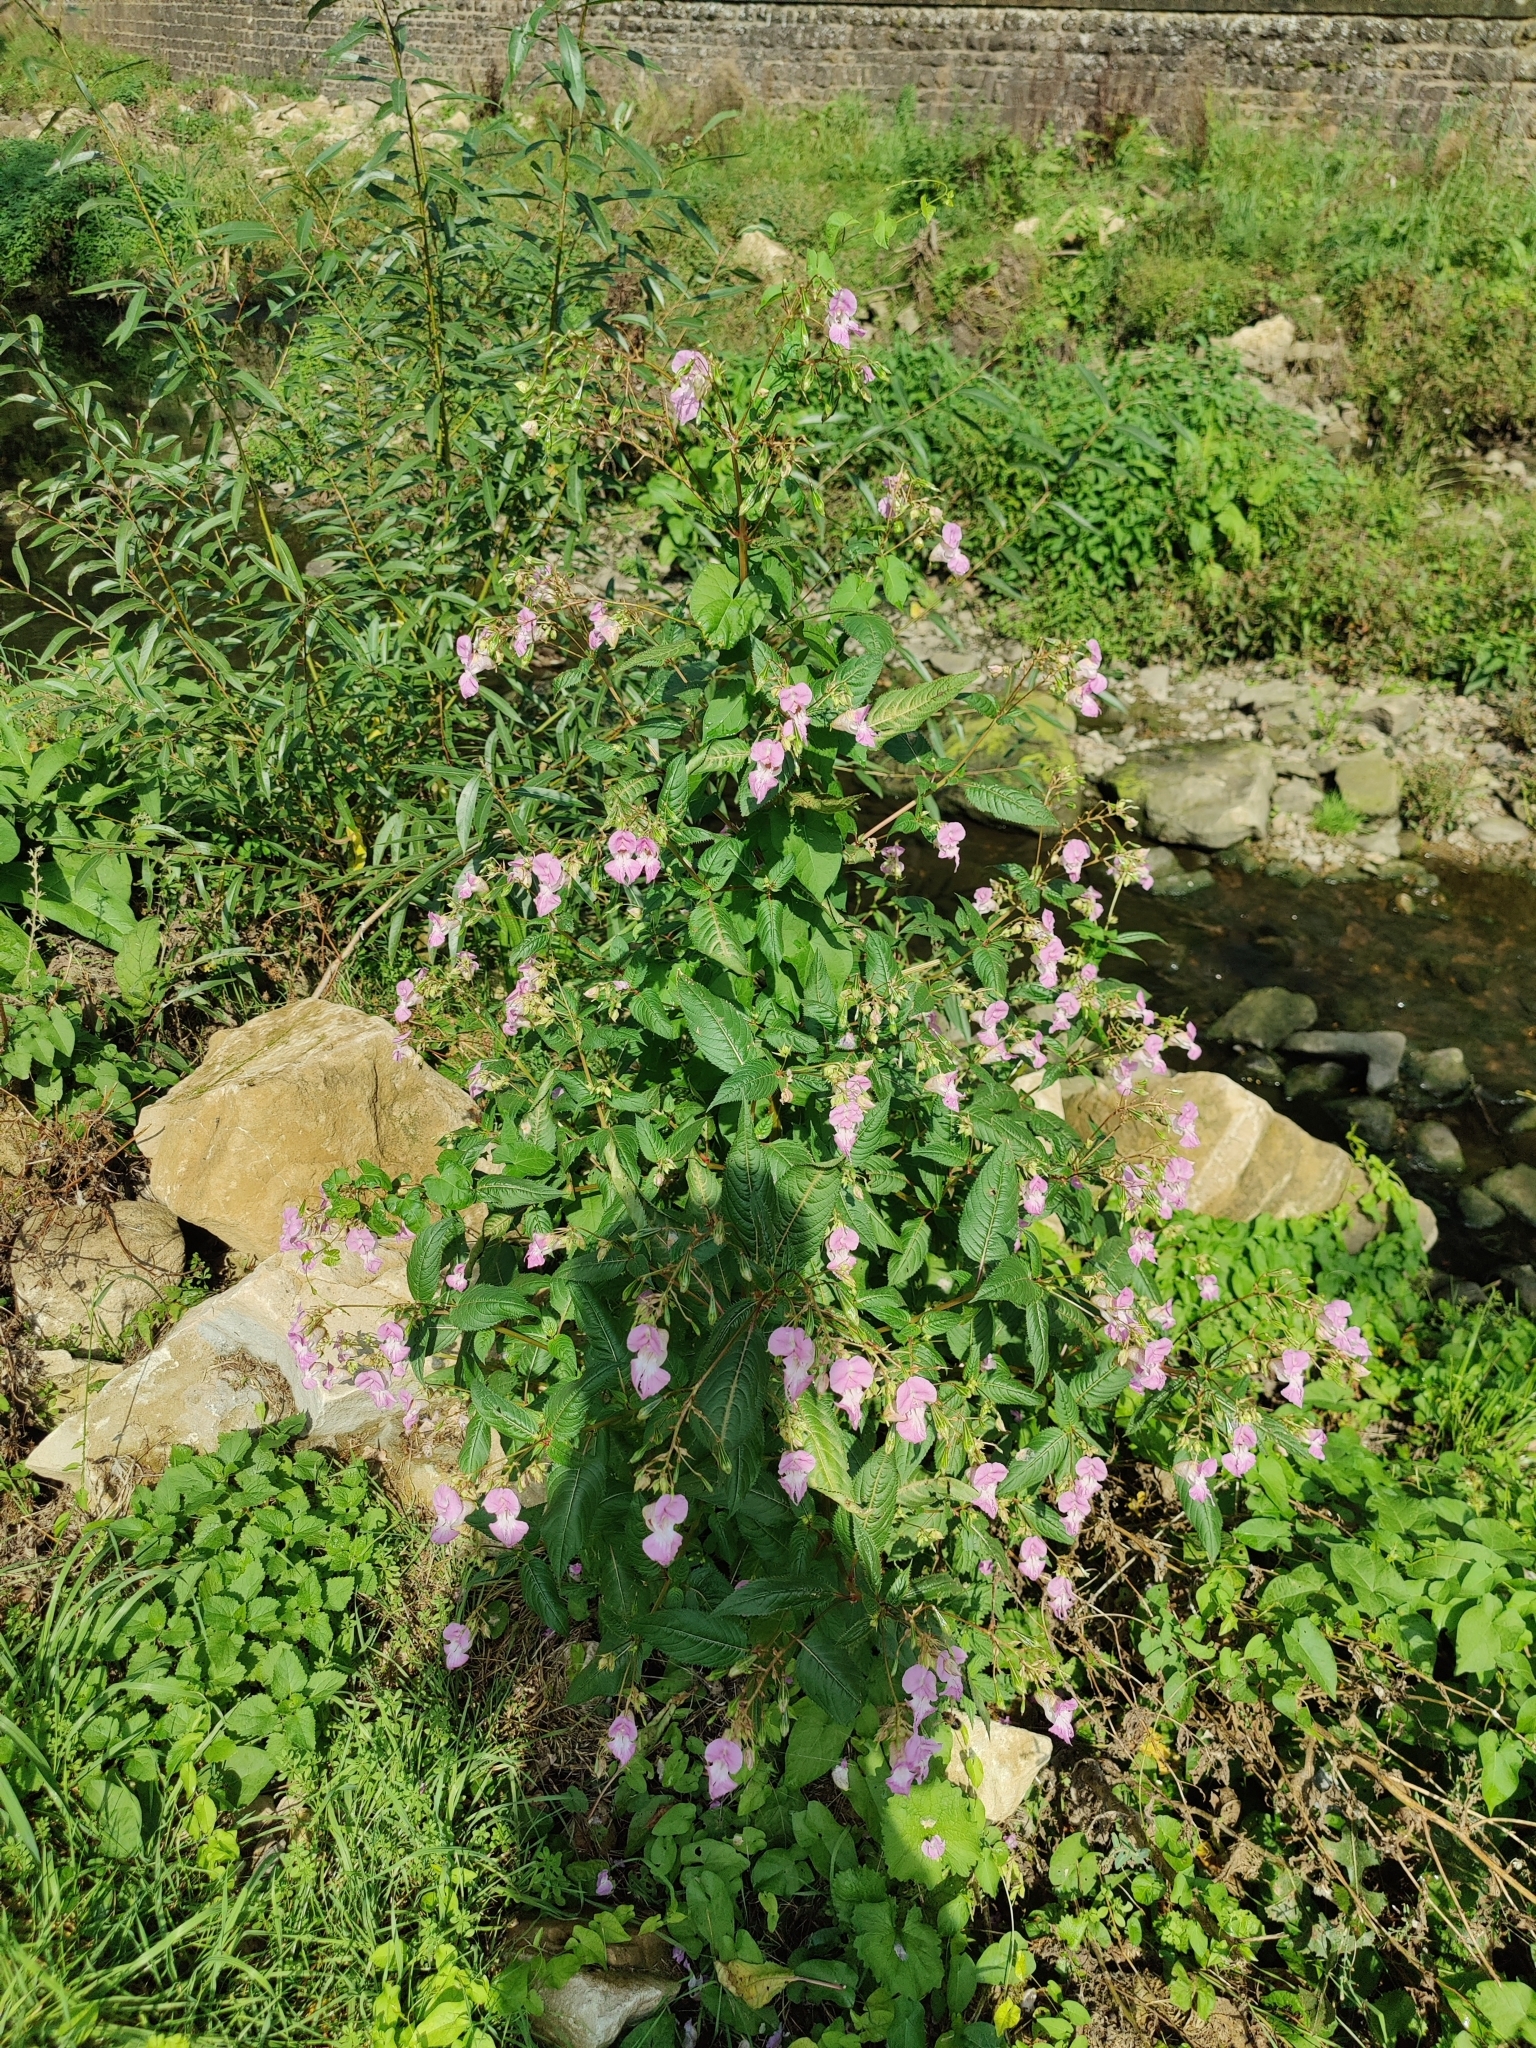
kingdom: Plantae
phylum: Tracheophyta
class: Magnoliopsida
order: Ericales
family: Balsaminaceae
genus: Impatiens
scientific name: Impatiens glandulifera
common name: Himalayan balsam
